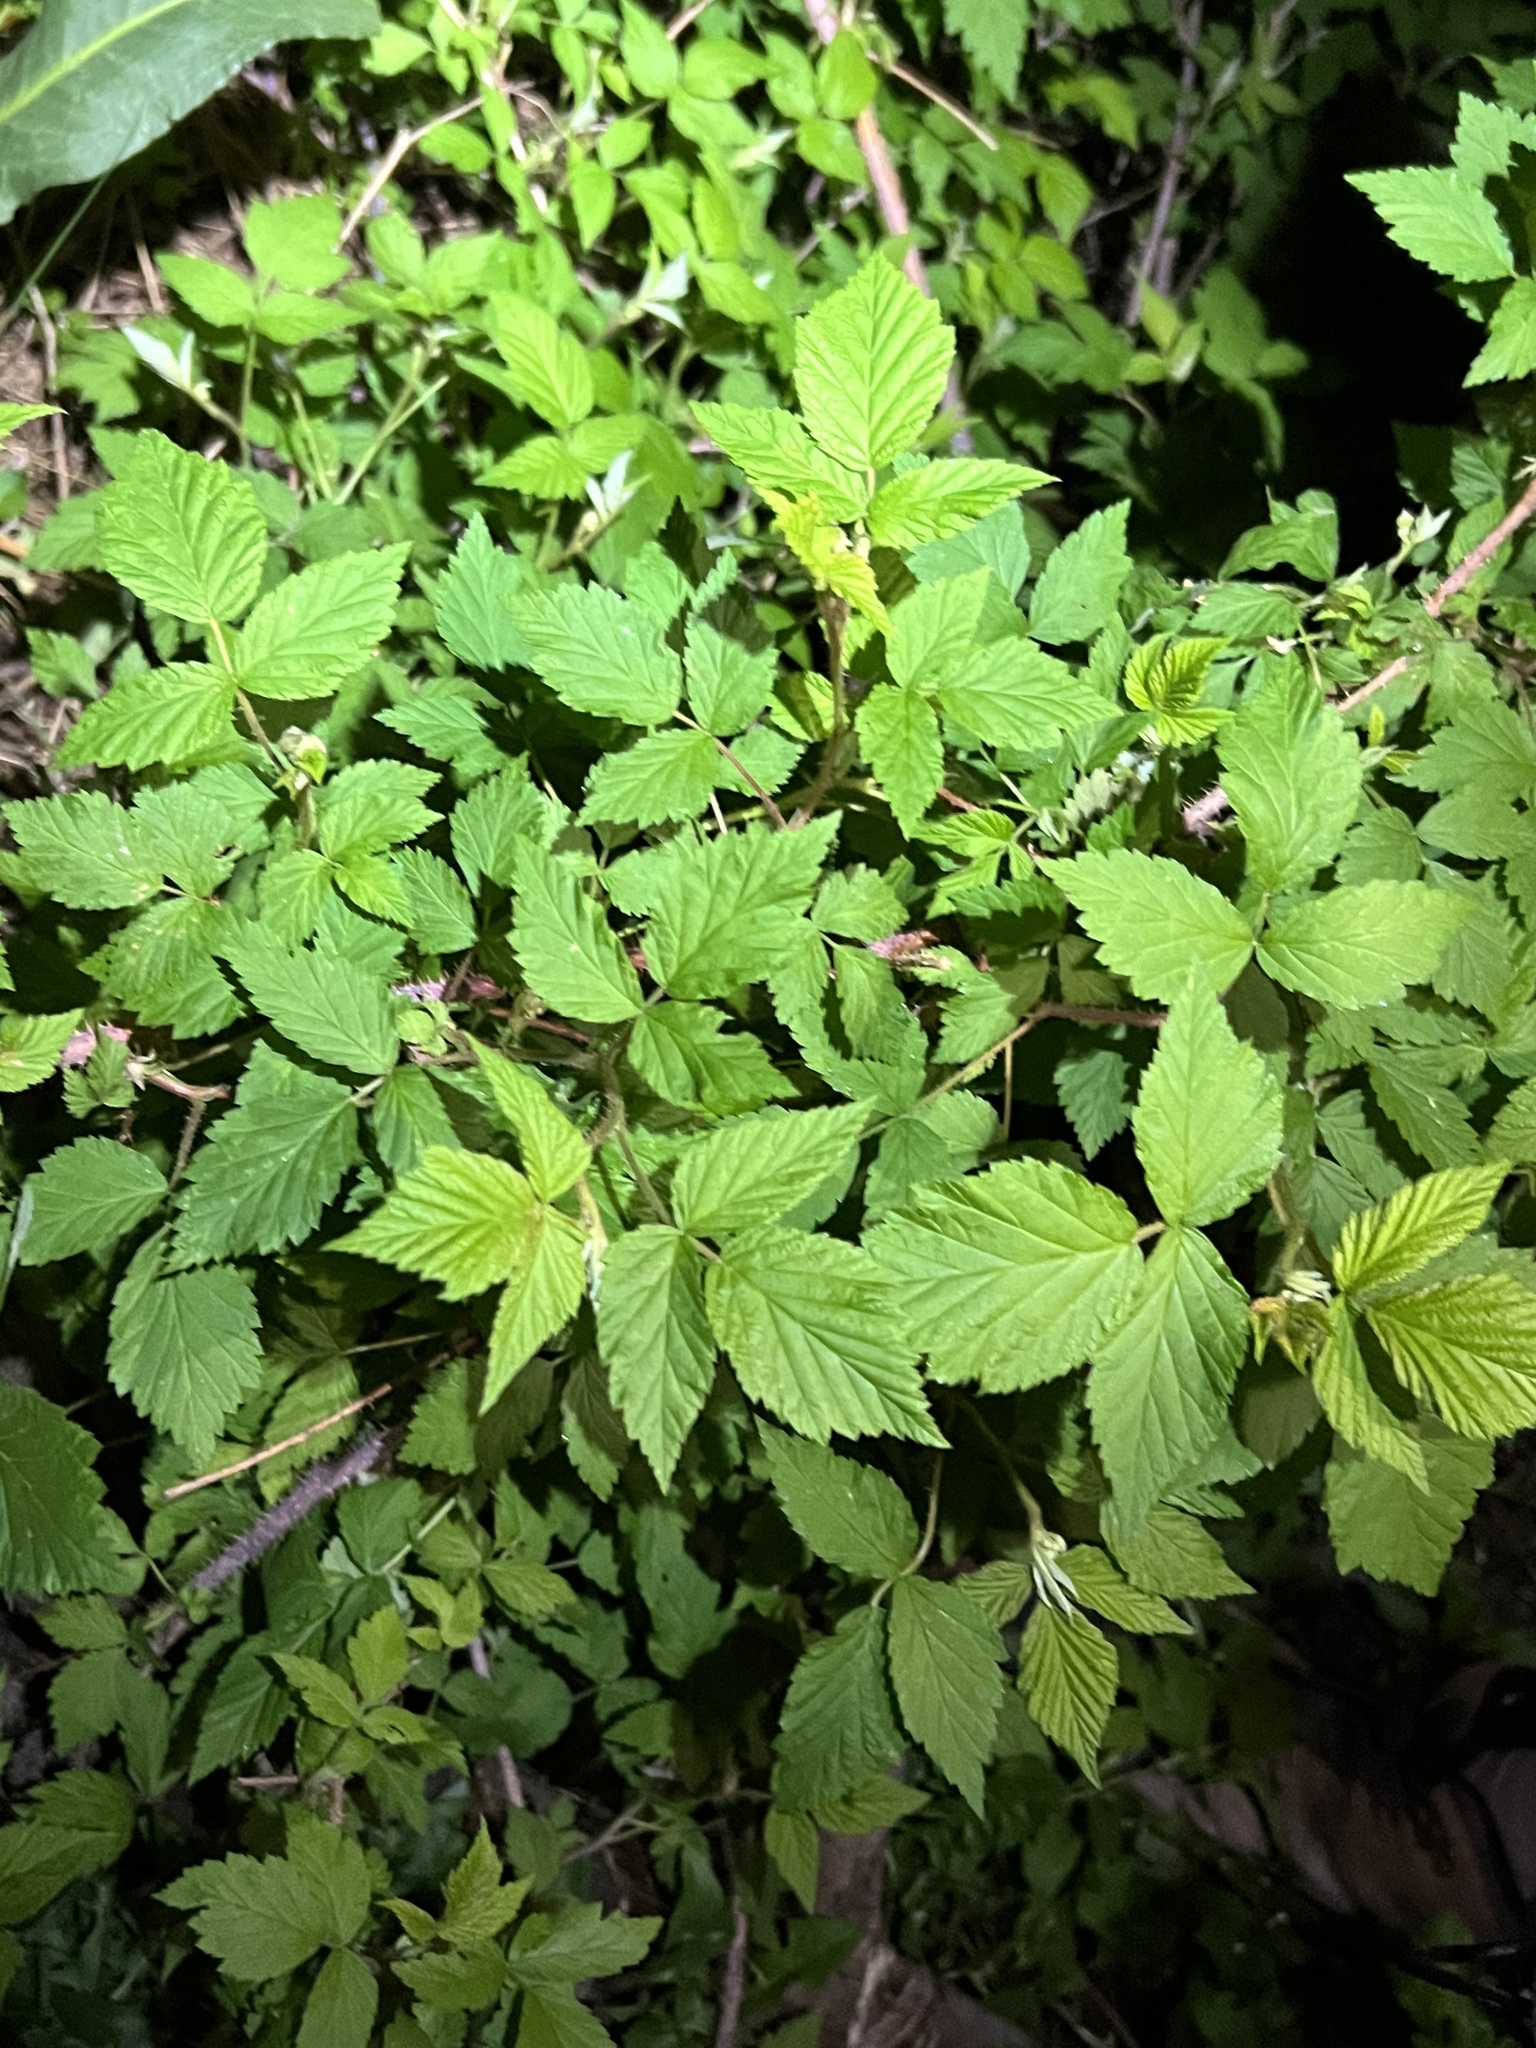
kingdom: Plantae
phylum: Tracheophyta
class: Magnoliopsida
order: Rosales
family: Rosaceae
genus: Rubus
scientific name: Rubus idaeus
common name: Raspberry
